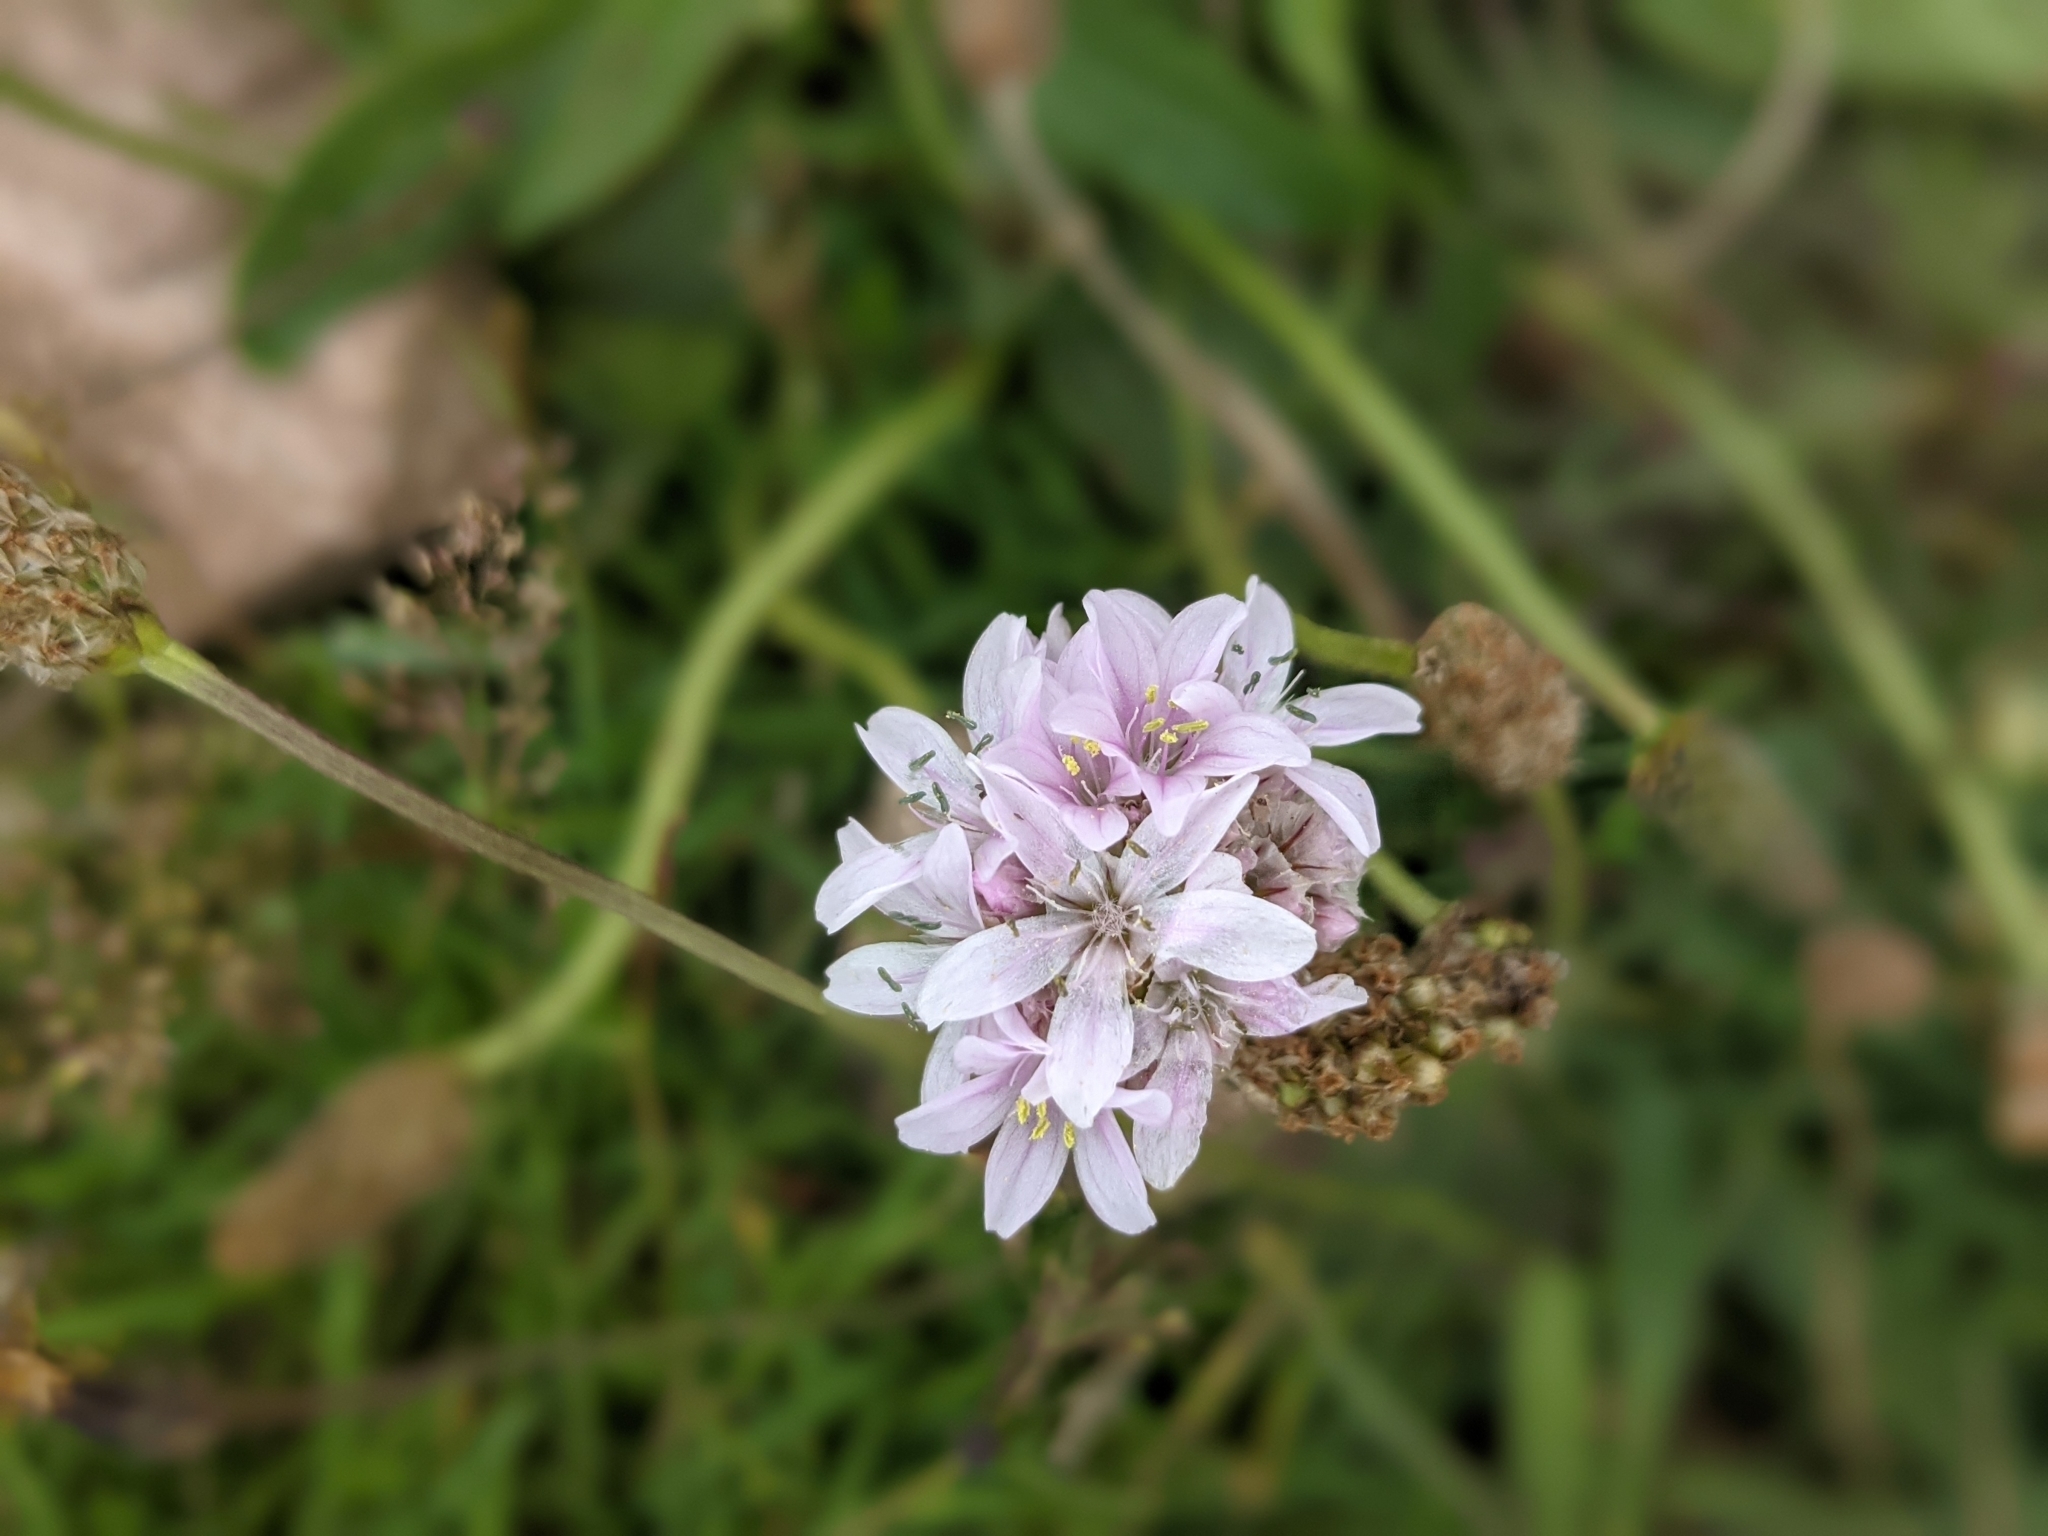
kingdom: Plantae
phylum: Tracheophyta
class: Magnoliopsida
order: Caryophyllales
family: Plumbaginaceae
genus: Armeria
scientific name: Armeria maritima
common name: Thrift
